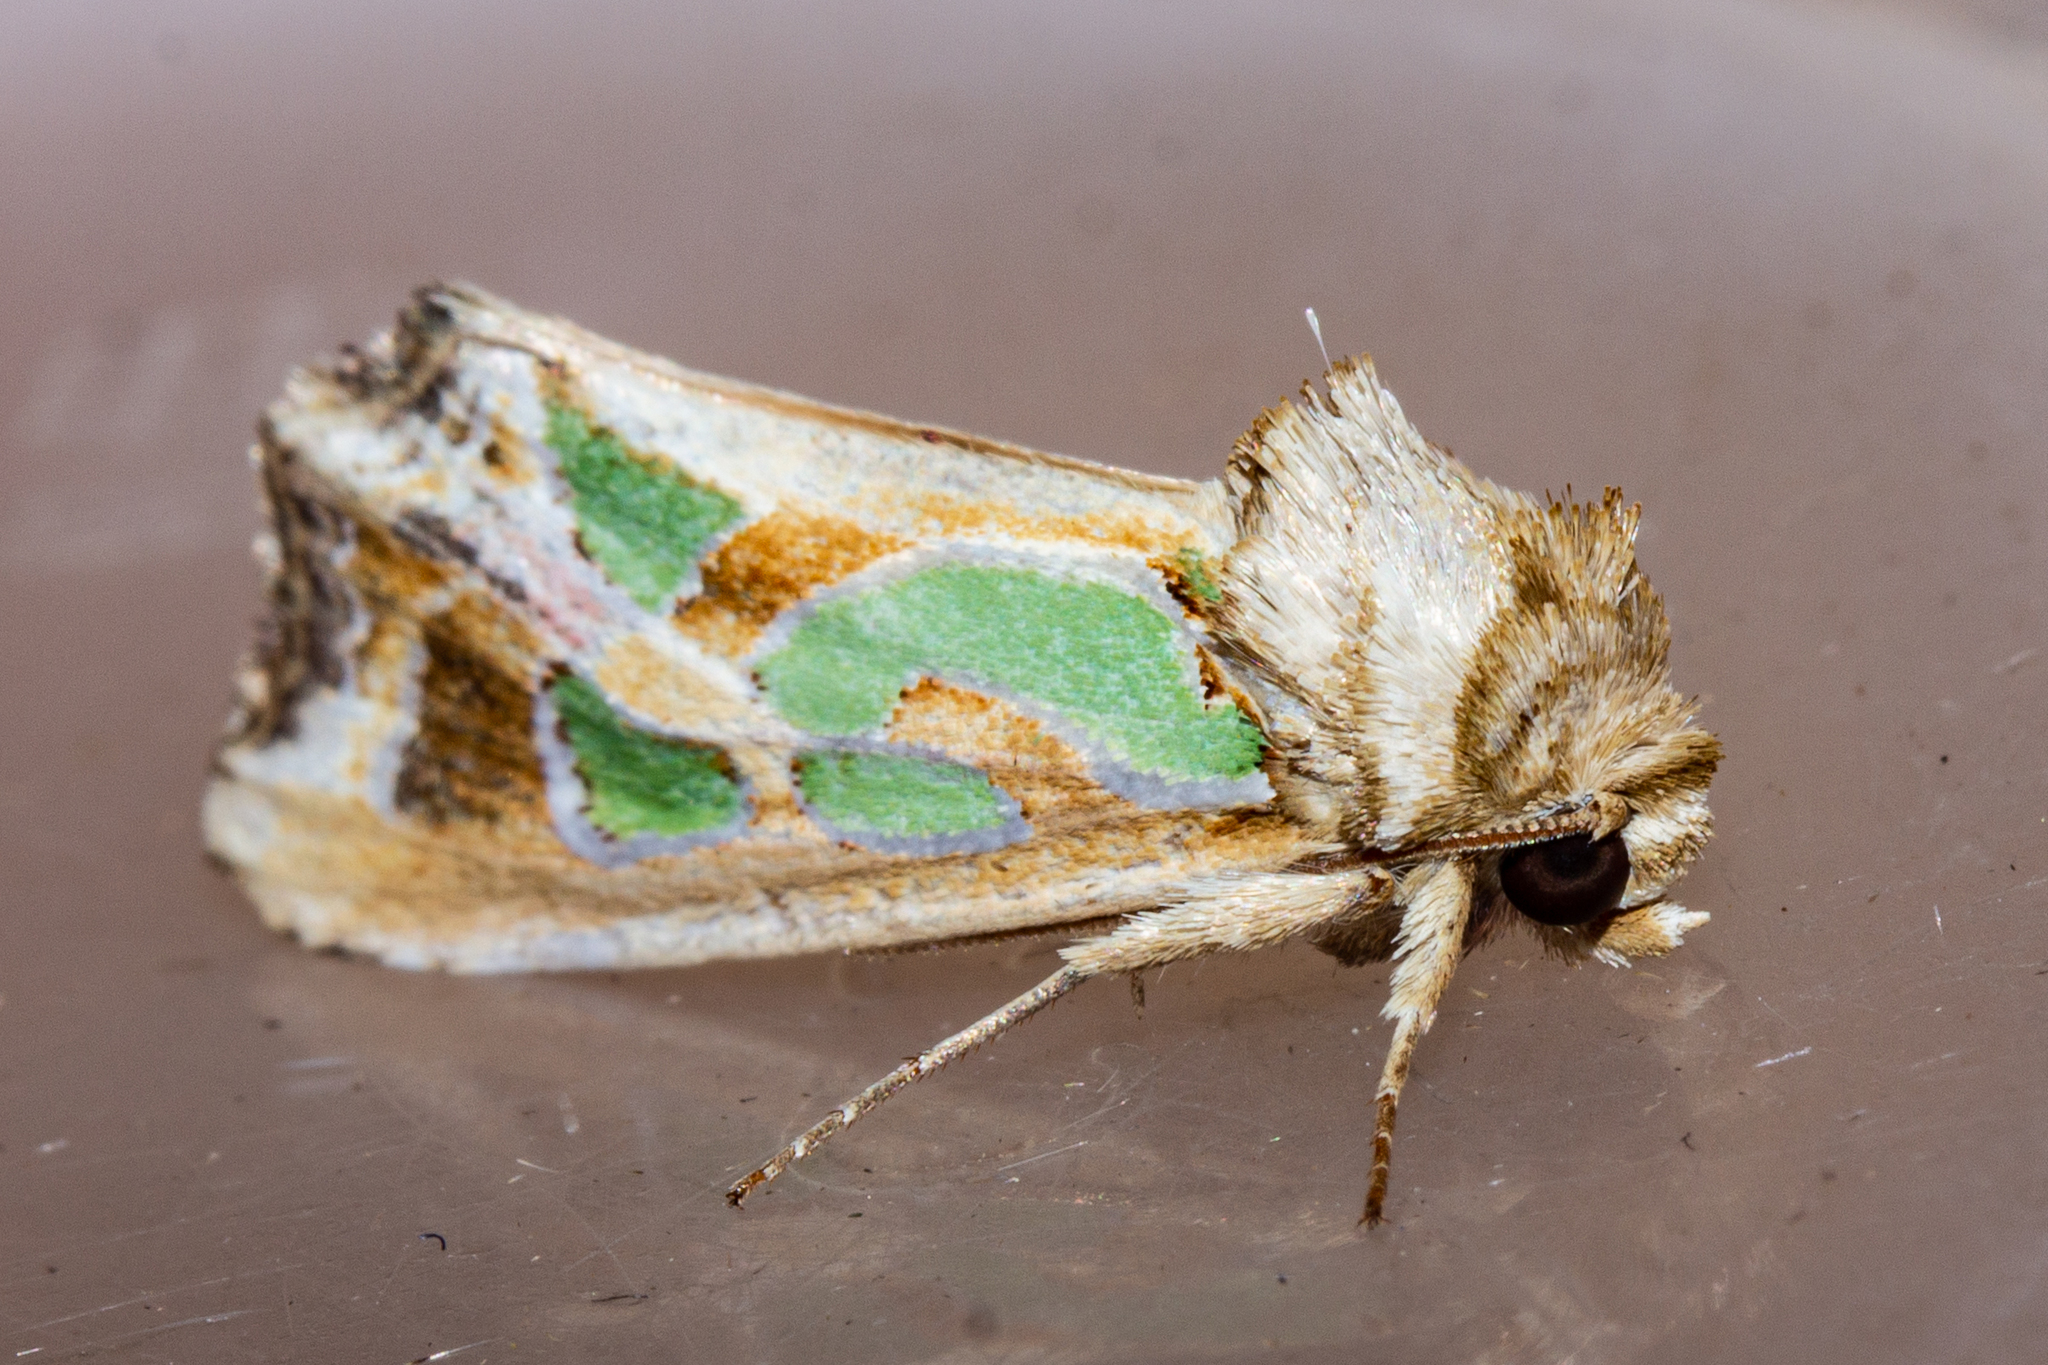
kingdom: Animalia
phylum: Arthropoda
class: Insecta
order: Lepidoptera
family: Noctuidae
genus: Cosmodes
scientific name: Cosmodes elegans
